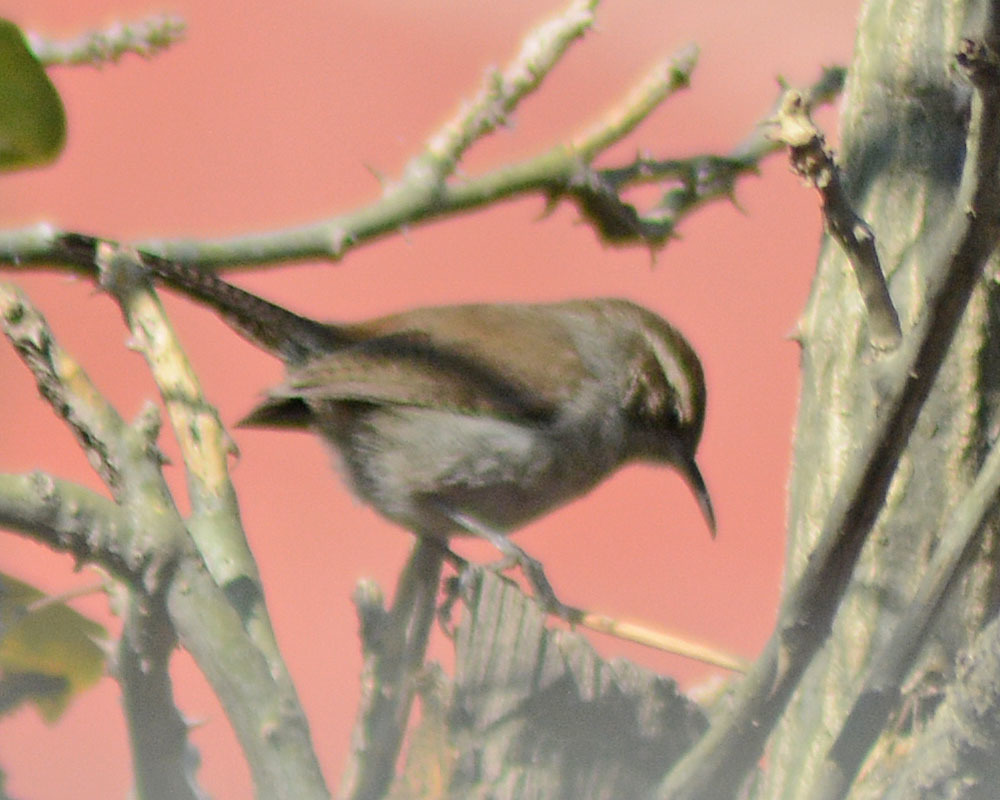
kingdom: Animalia
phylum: Chordata
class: Aves
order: Passeriformes
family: Troglodytidae
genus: Thryomanes
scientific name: Thryomanes bewickii
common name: Bewick's wren
